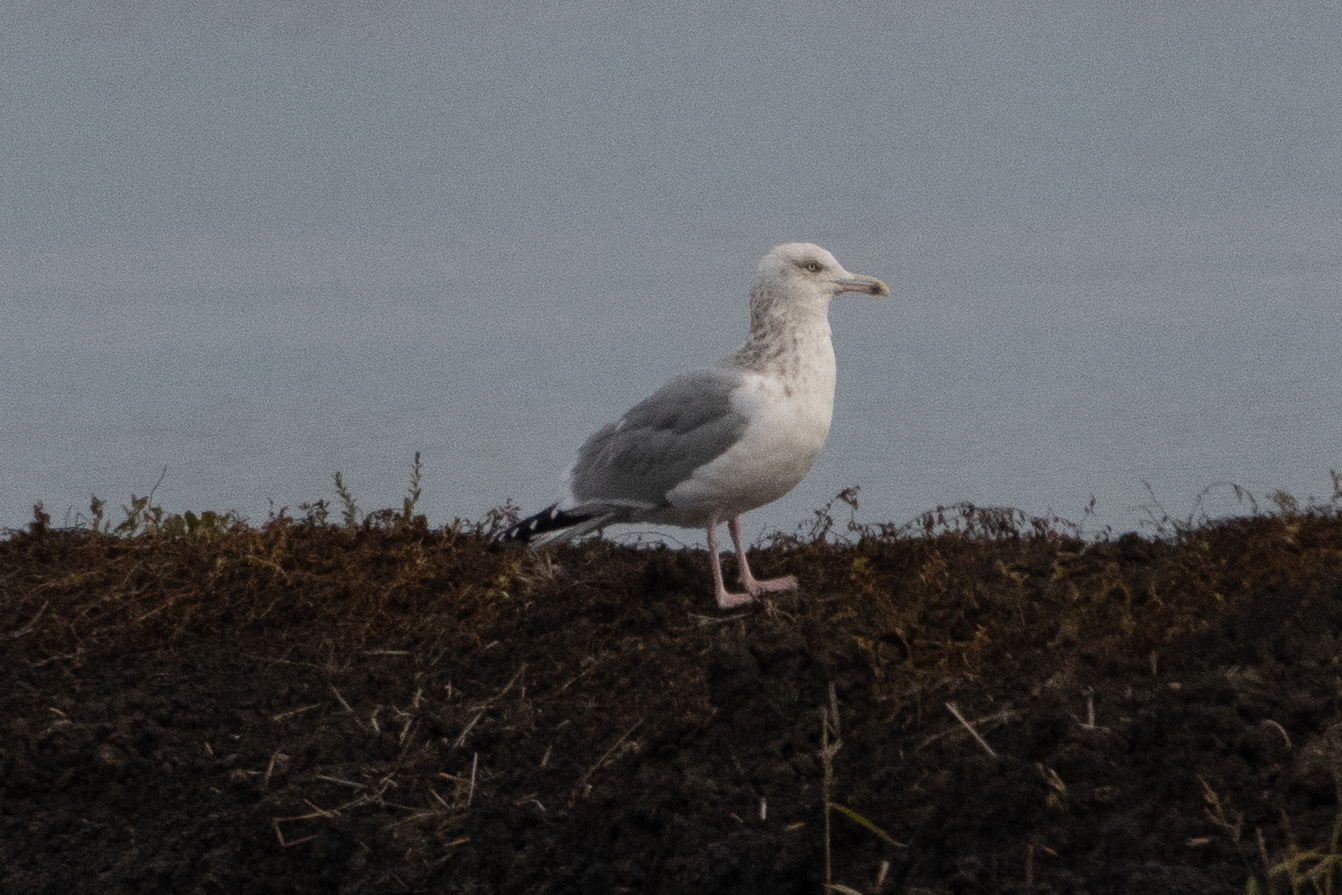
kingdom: Animalia
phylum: Chordata
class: Aves
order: Charadriiformes
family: Laridae
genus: Larus
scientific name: Larus argentatus
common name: Herring gull
